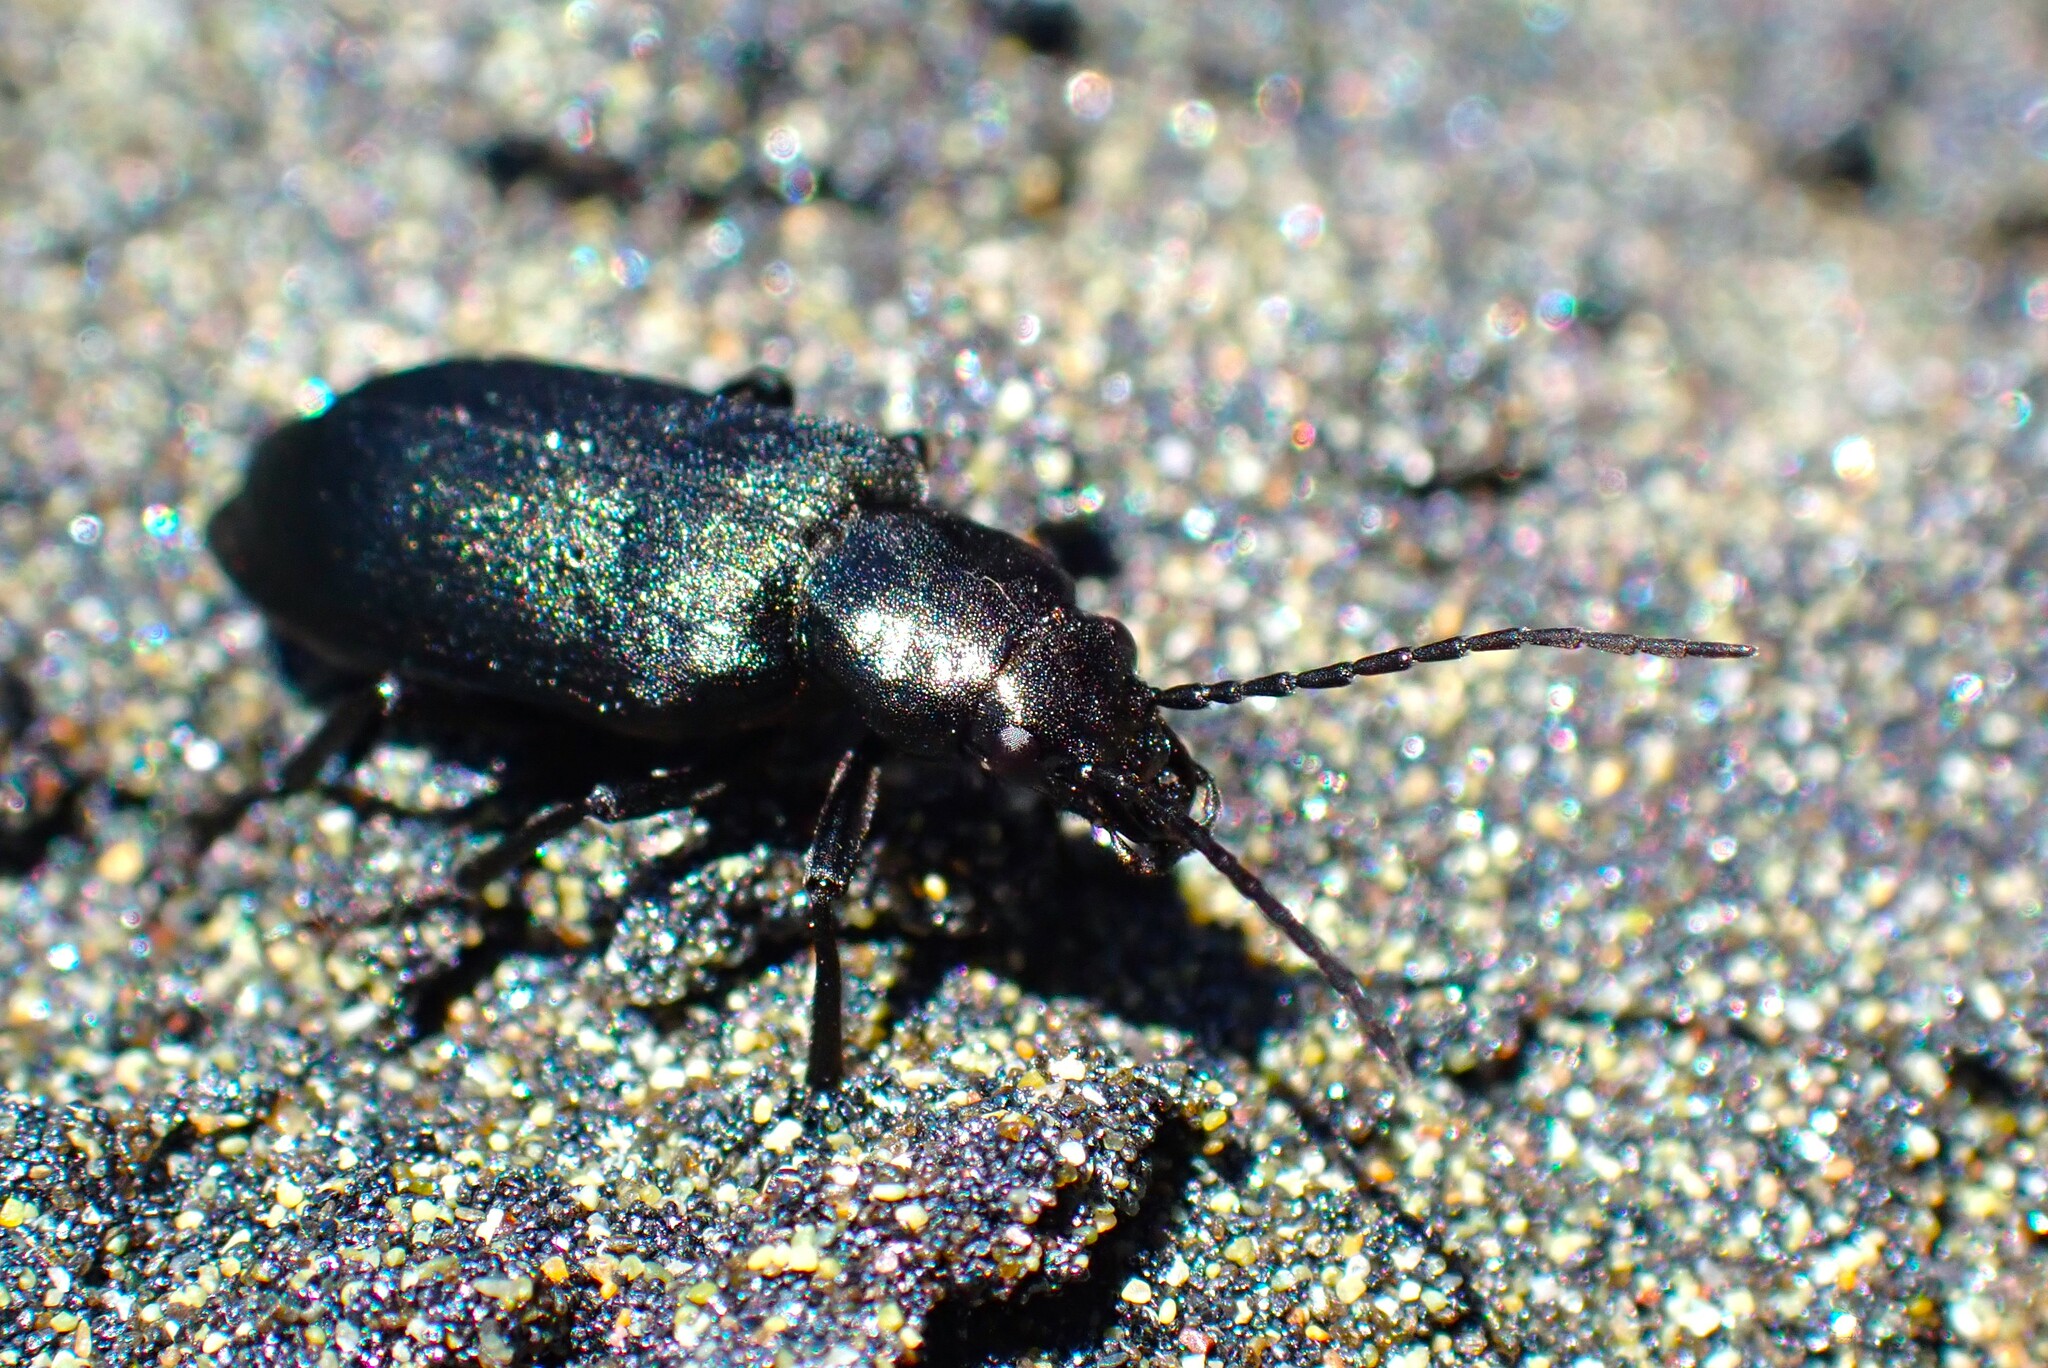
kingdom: Animalia
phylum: Arthropoda
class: Insecta
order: Coleoptera
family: Oedemeridae
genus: Ditylus
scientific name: Ditylus quadricollis
